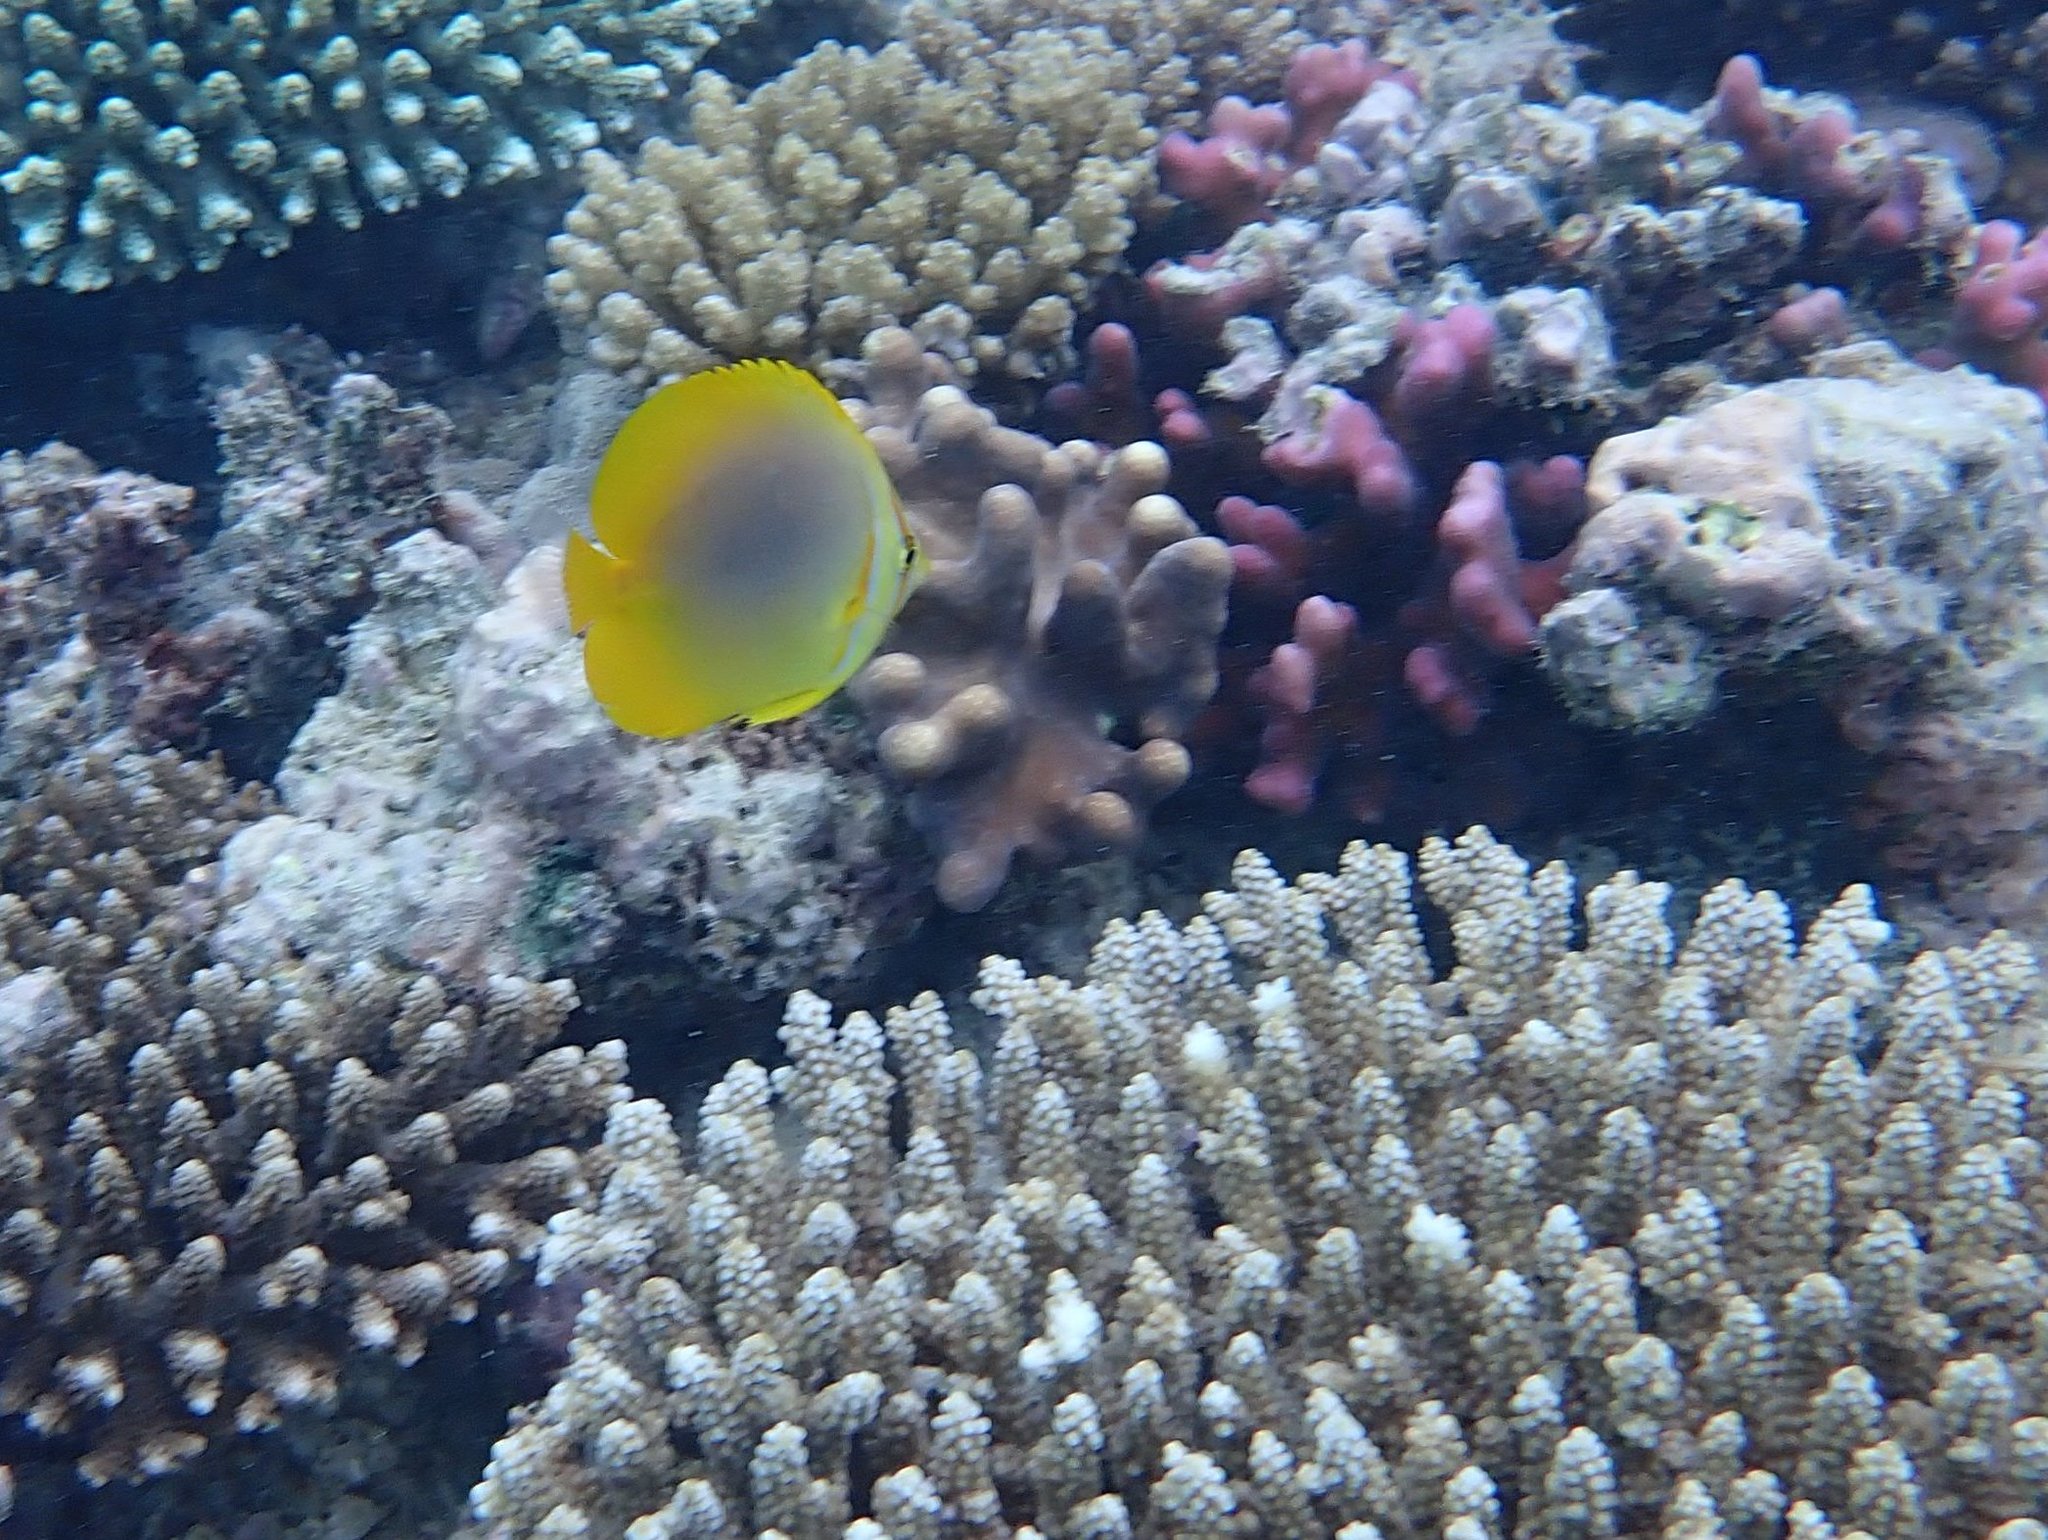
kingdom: Animalia
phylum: Chordata
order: Perciformes
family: Chaetodontidae
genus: Chaetodon
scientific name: Chaetodon aureofasciatus
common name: Golden butterflyfish
